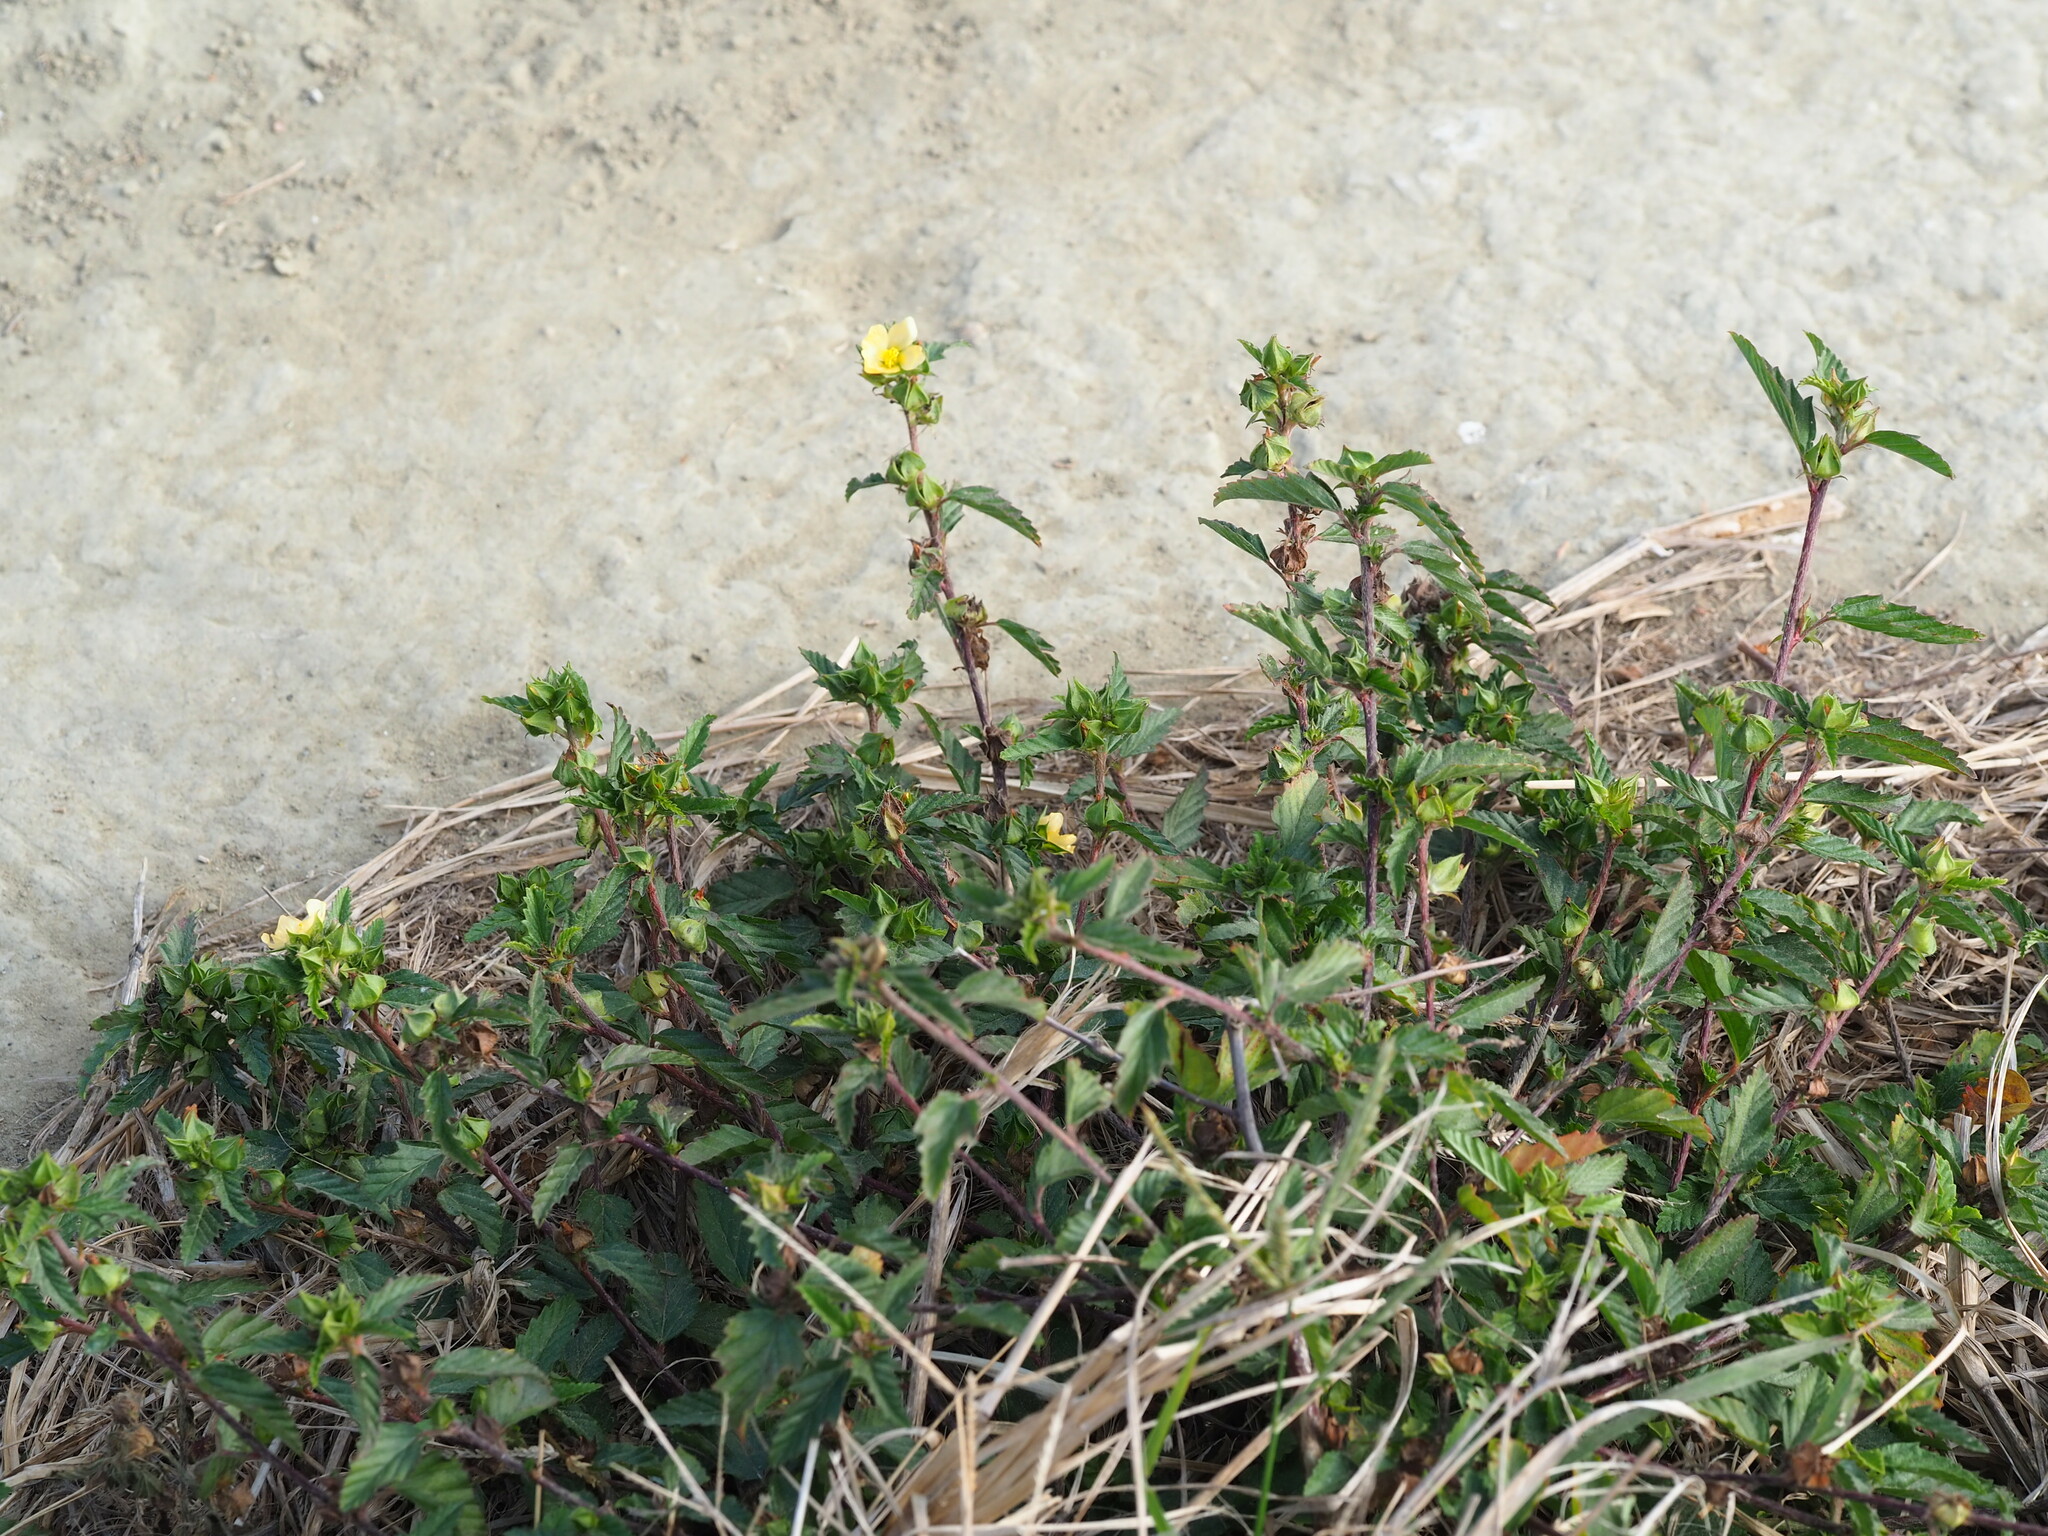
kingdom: Plantae
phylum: Tracheophyta
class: Magnoliopsida
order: Malvales
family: Malvaceae
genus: Malvastrum
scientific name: Malvastrum coromandelianum
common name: Threelobe false mallow
